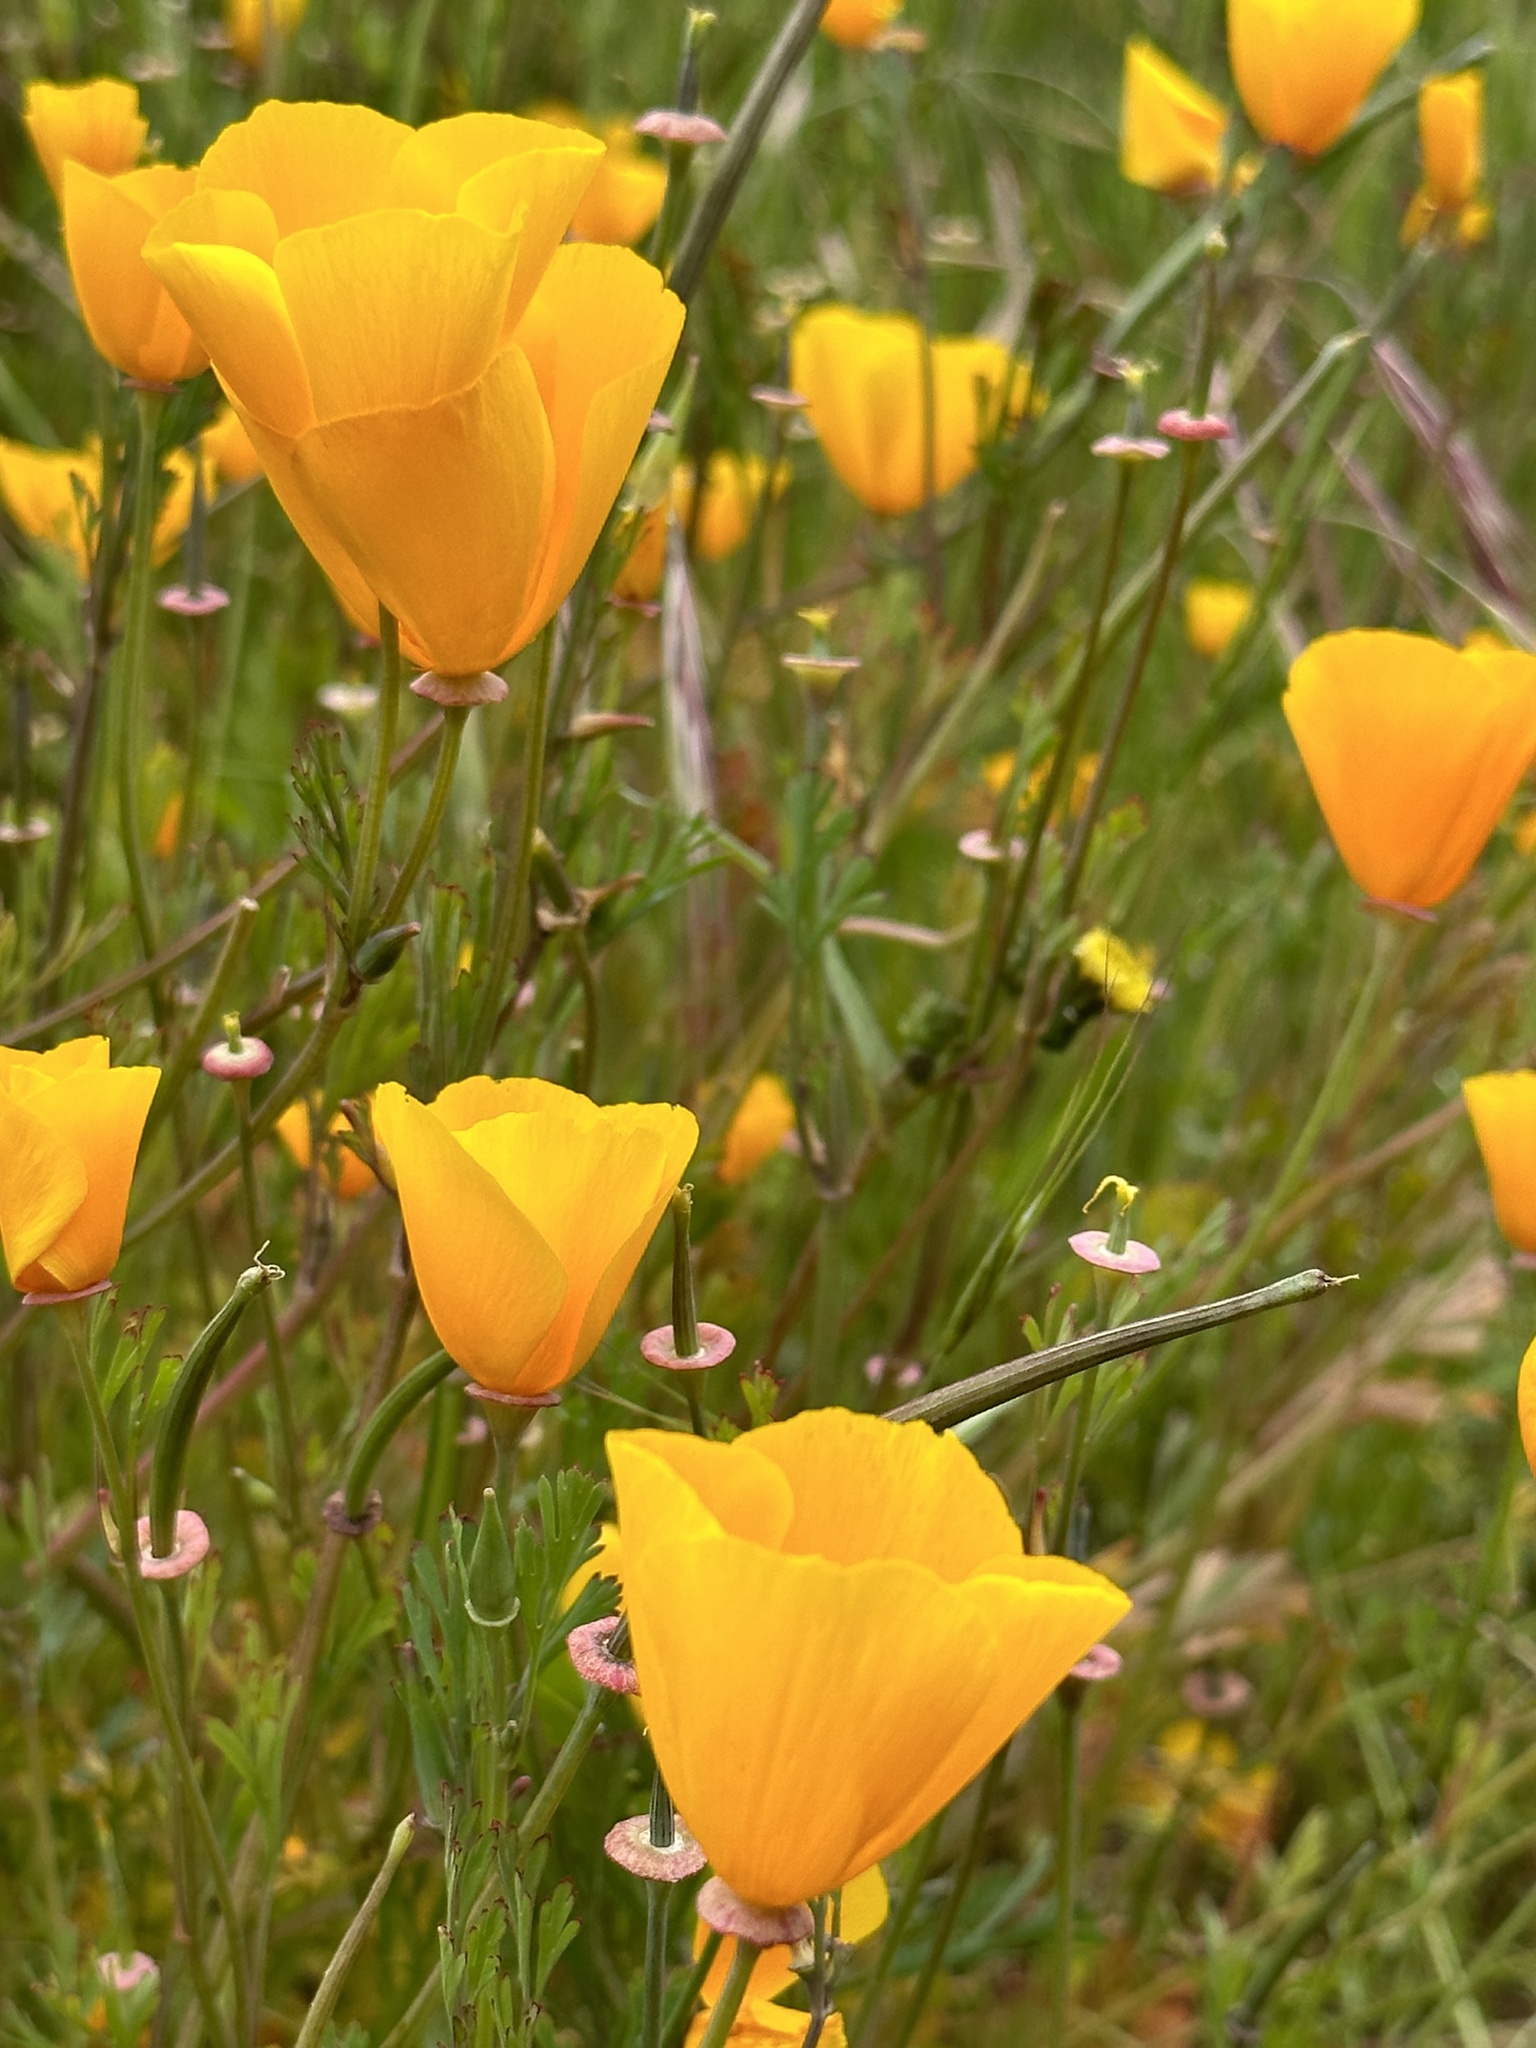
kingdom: Plantae
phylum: Tracheophyta
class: Magnoliopsida
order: Ranunculales
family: Papaveraceae
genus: Eschscholzia
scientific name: Eschscholzia californica
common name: California poppy
